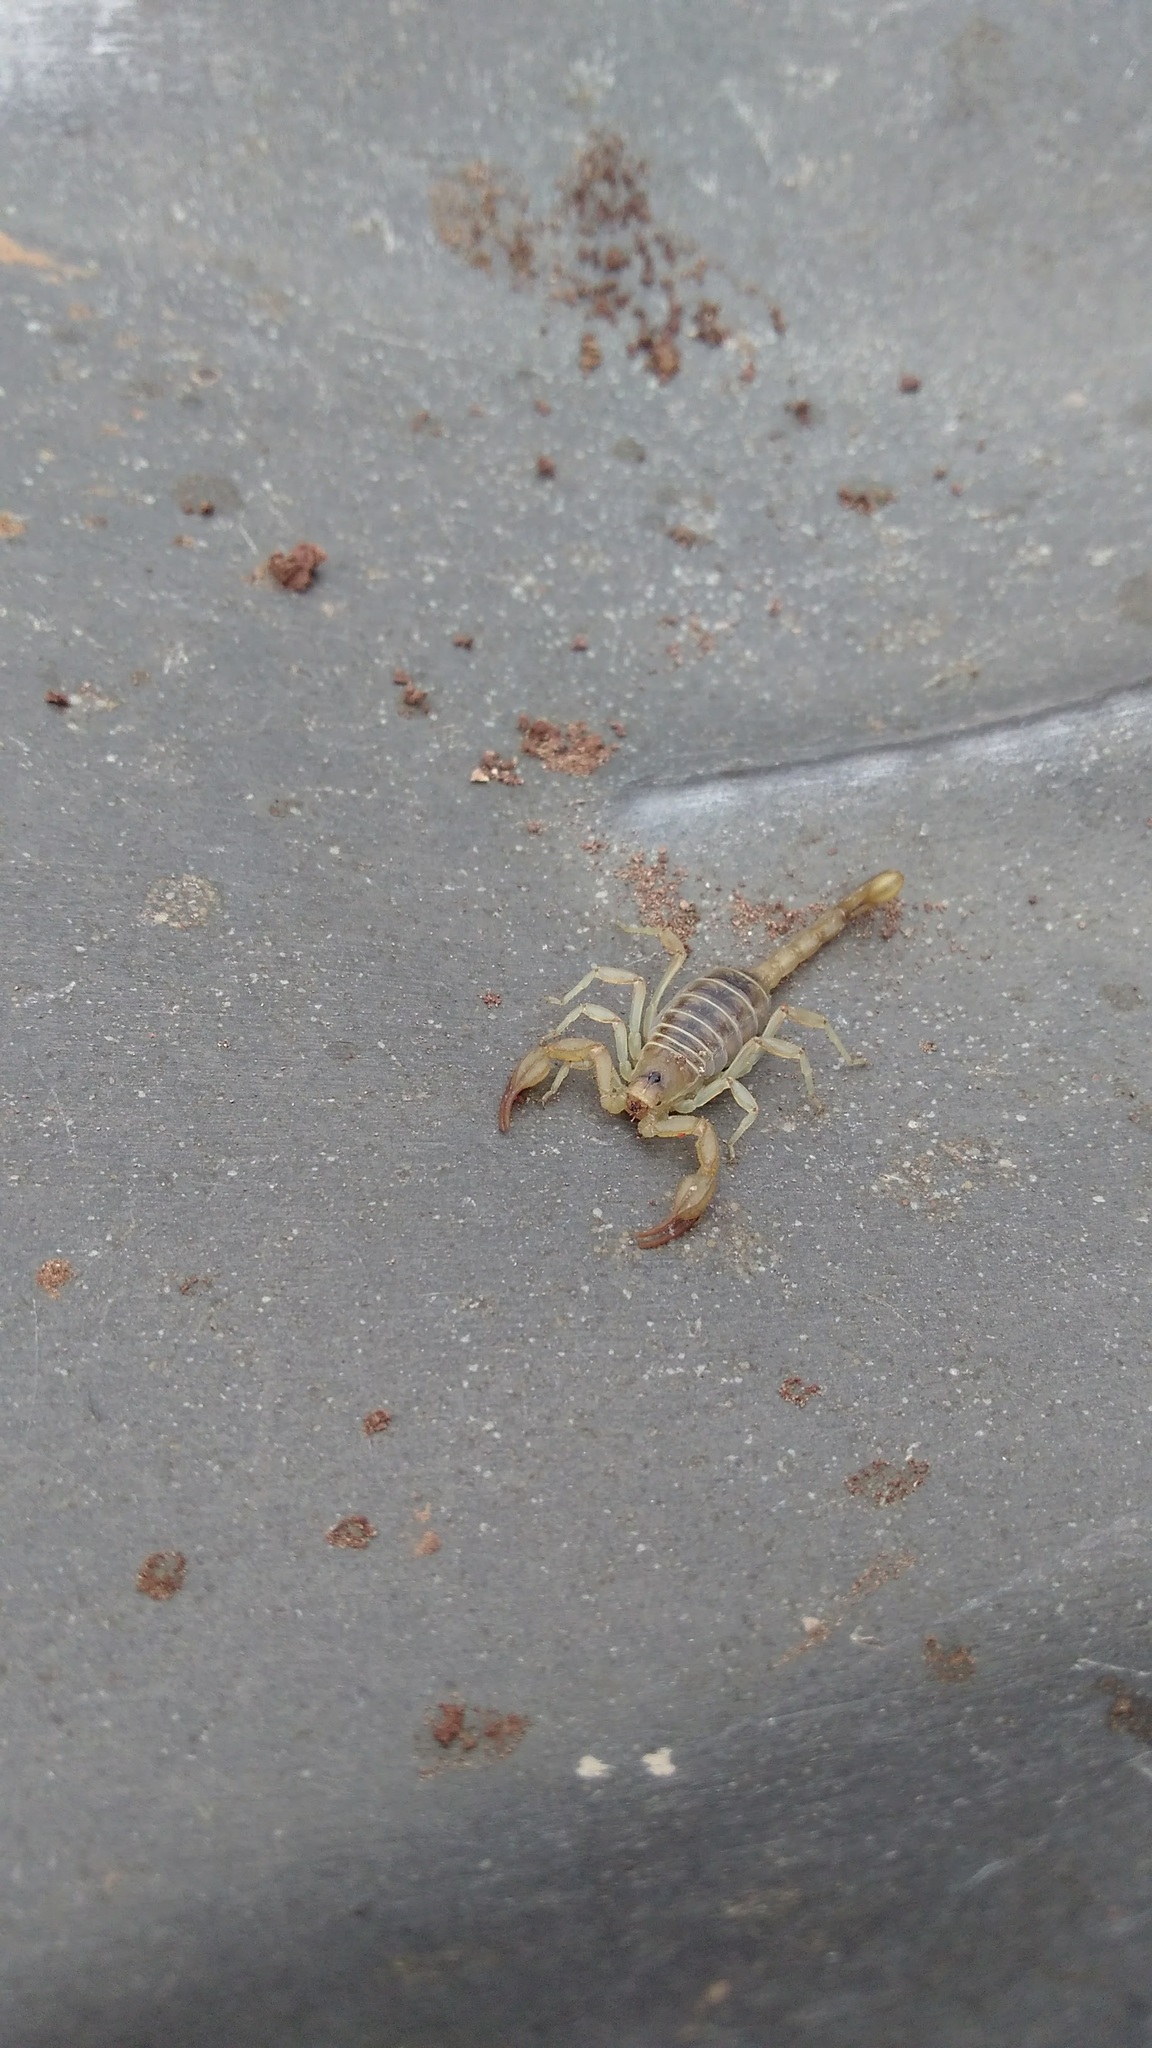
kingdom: Animalia
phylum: Arthropoda
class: Arachnida
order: Scorpiones
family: Vaejovidae
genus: Paruroctonus
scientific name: Paruroctonus boreus
